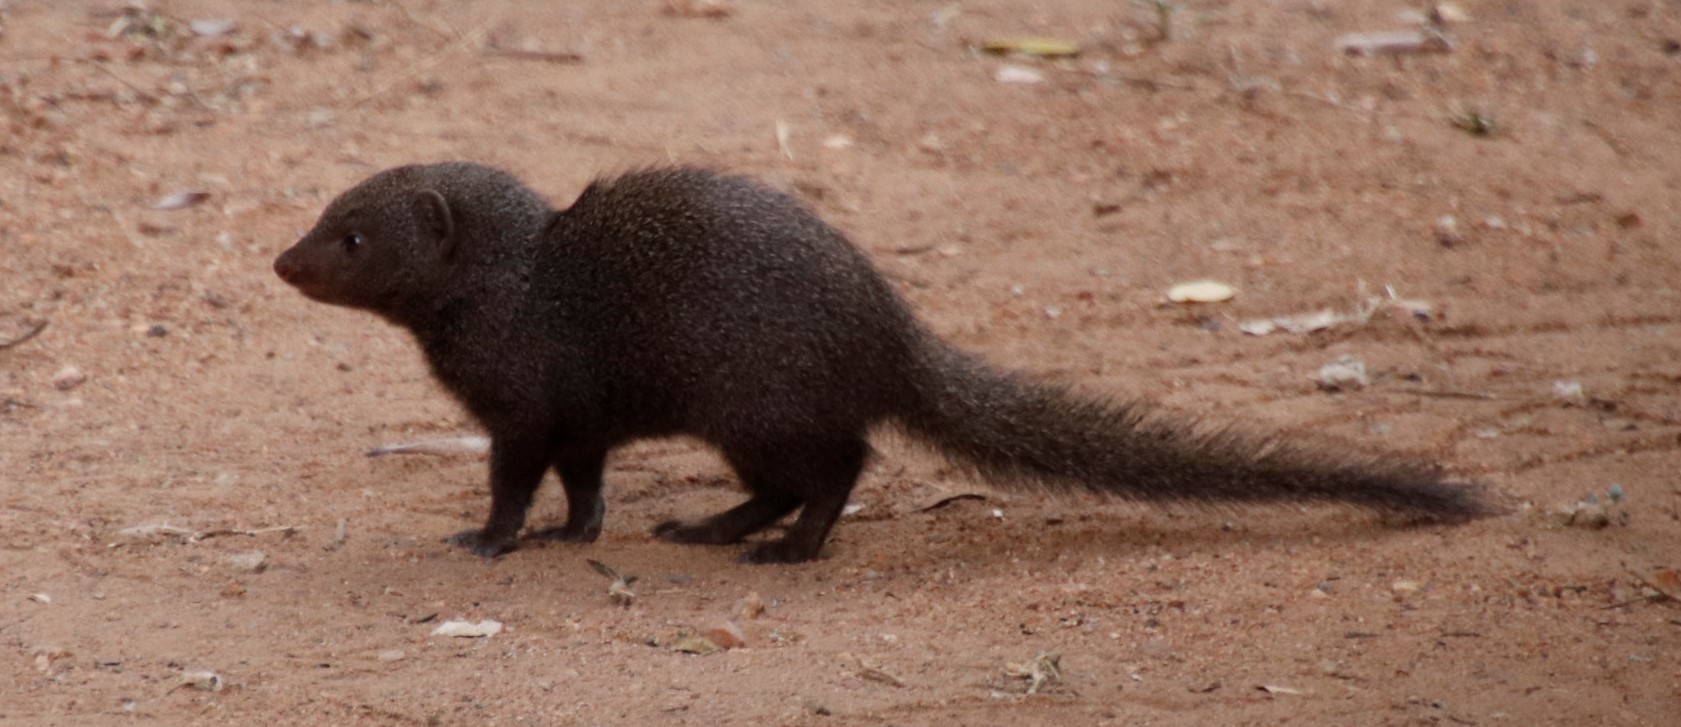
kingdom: Animalia
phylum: Chordata
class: Mammalia
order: Carnivora
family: Herpestidae
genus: Helogale
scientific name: Helogale parvula
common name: Common dwarf mongoose
